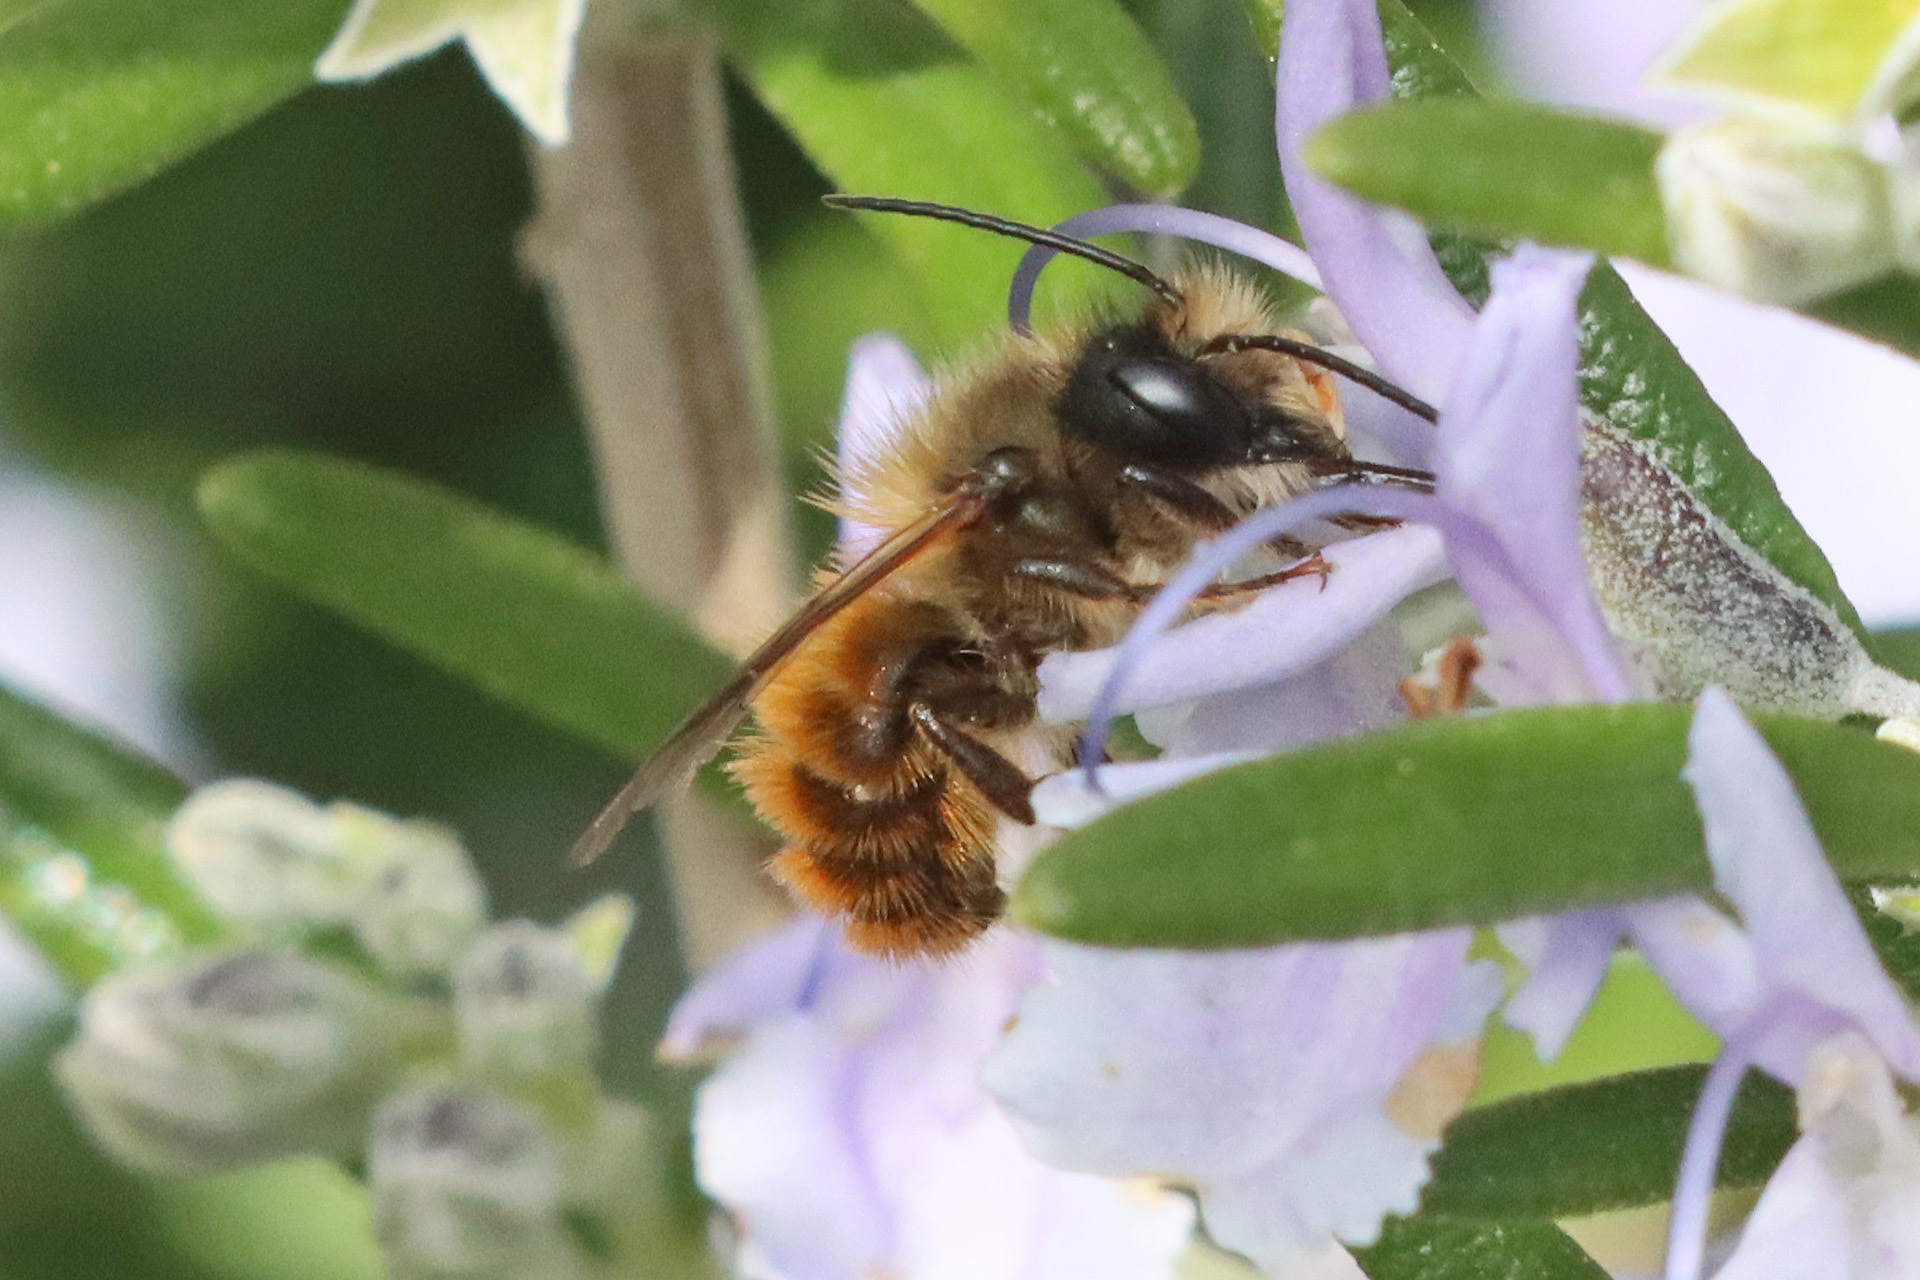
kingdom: Animalia
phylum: Arthropoda
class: Insecta
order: Hymenoptera
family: Megachilidae
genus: Osmia
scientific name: Osmia bicornis
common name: Red mason bee
